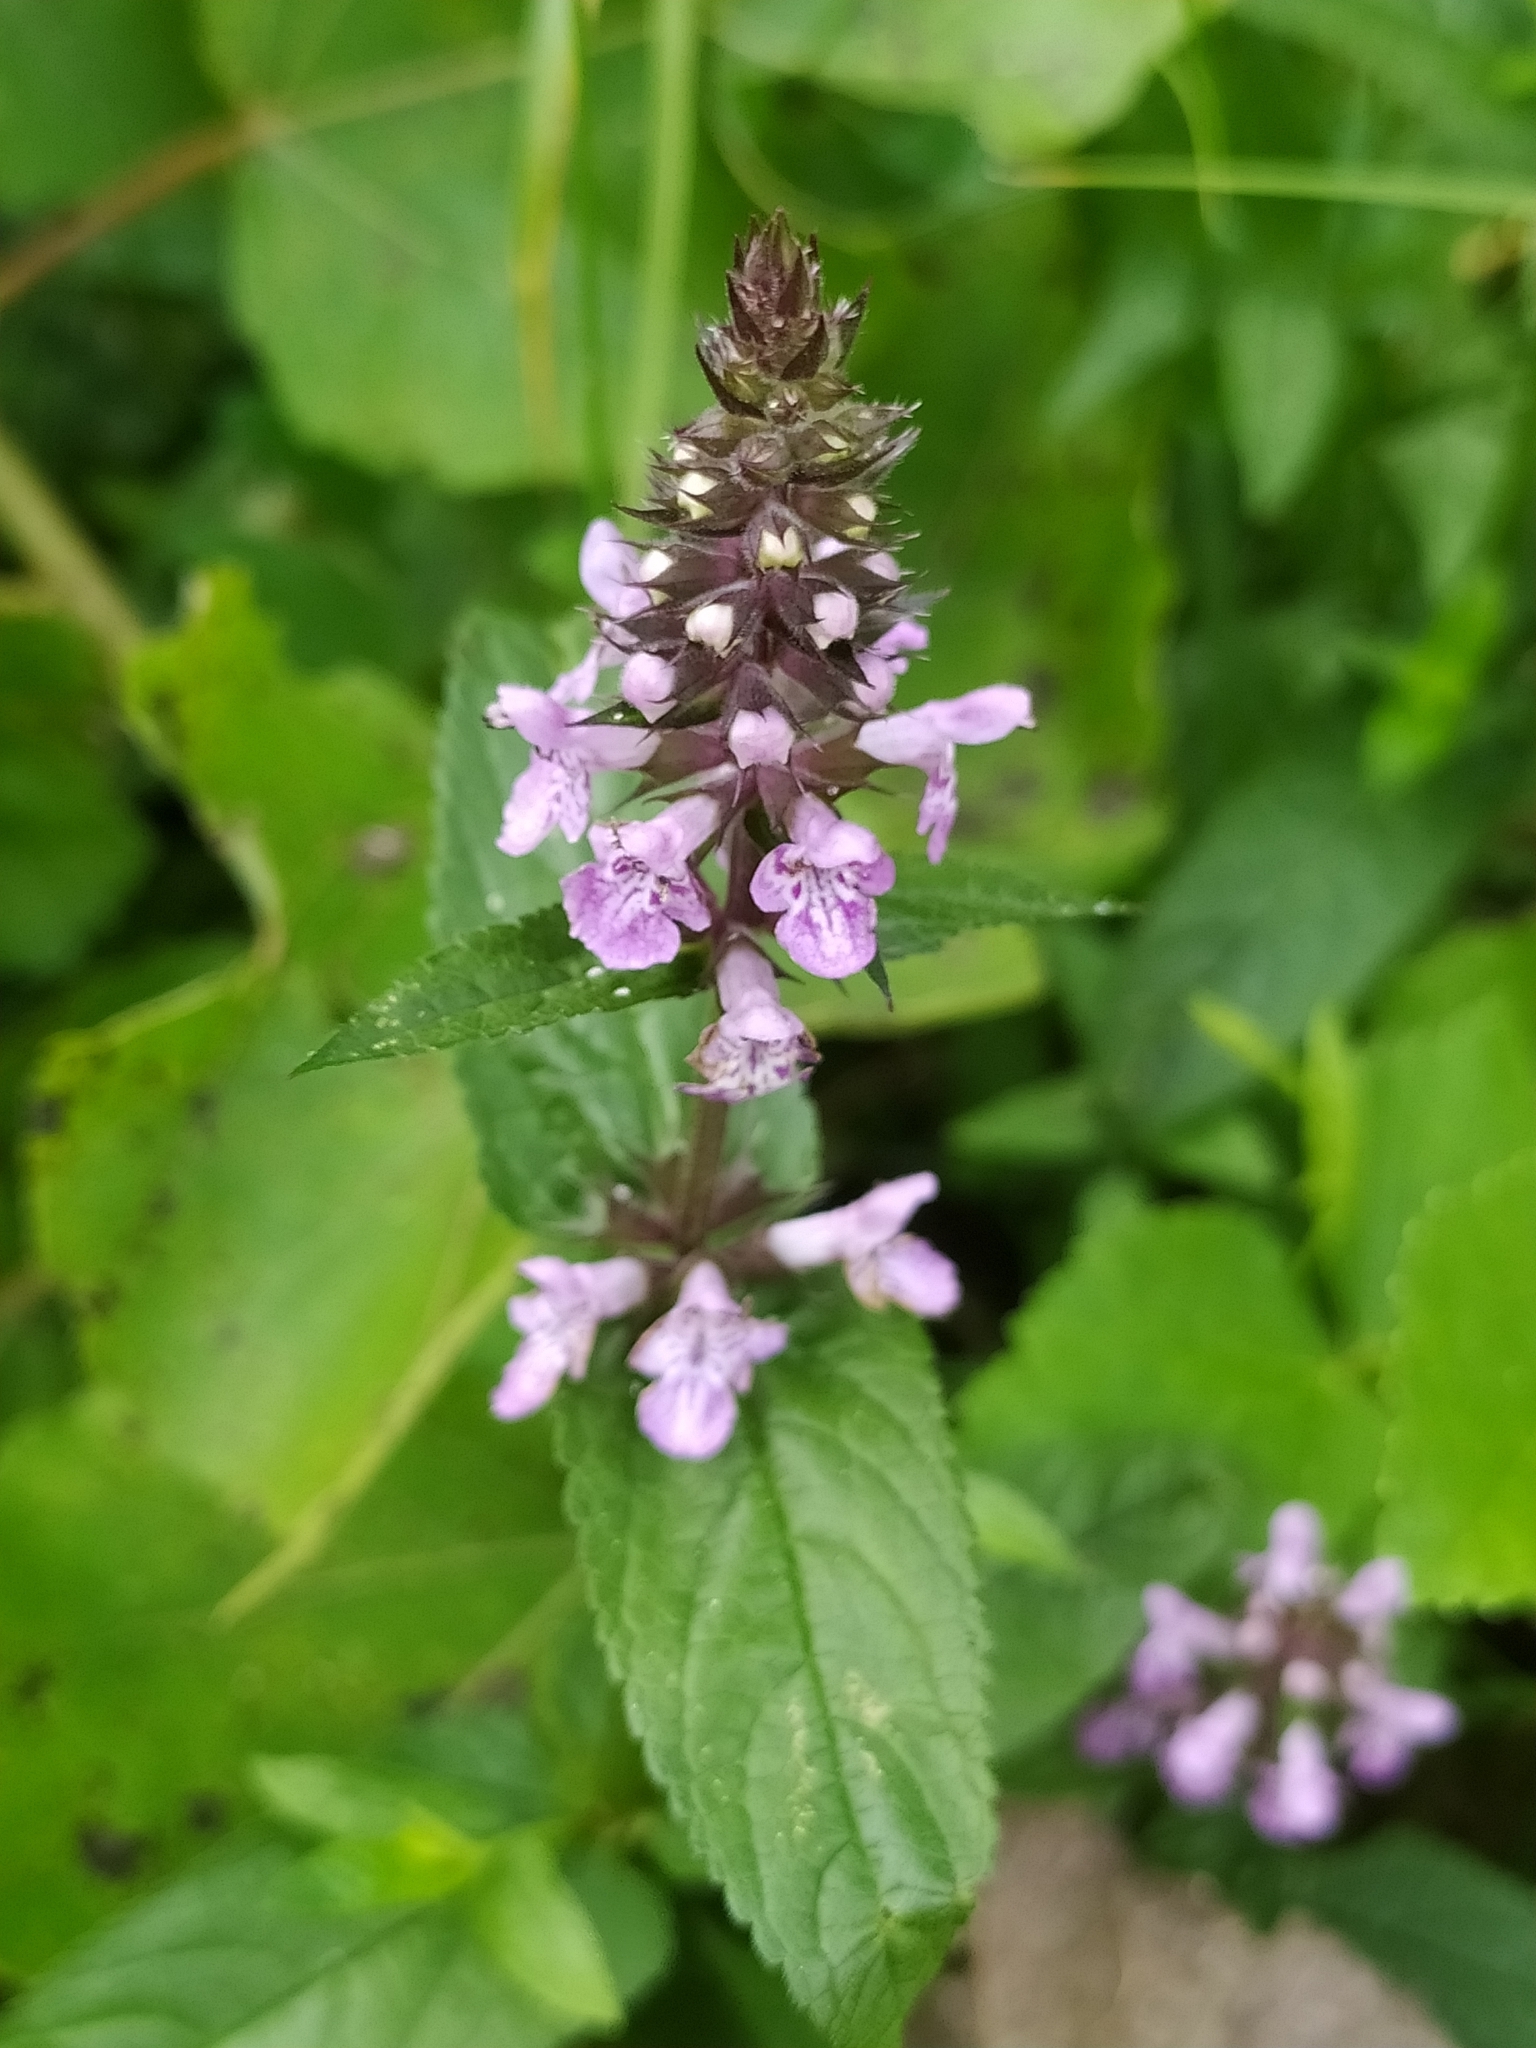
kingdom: Plantae
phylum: Tracheophyta
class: Magnoliopsida
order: Lamiales
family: Lamiaceae
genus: Stachys
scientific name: Stachys palustris
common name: Marsh woundwort
